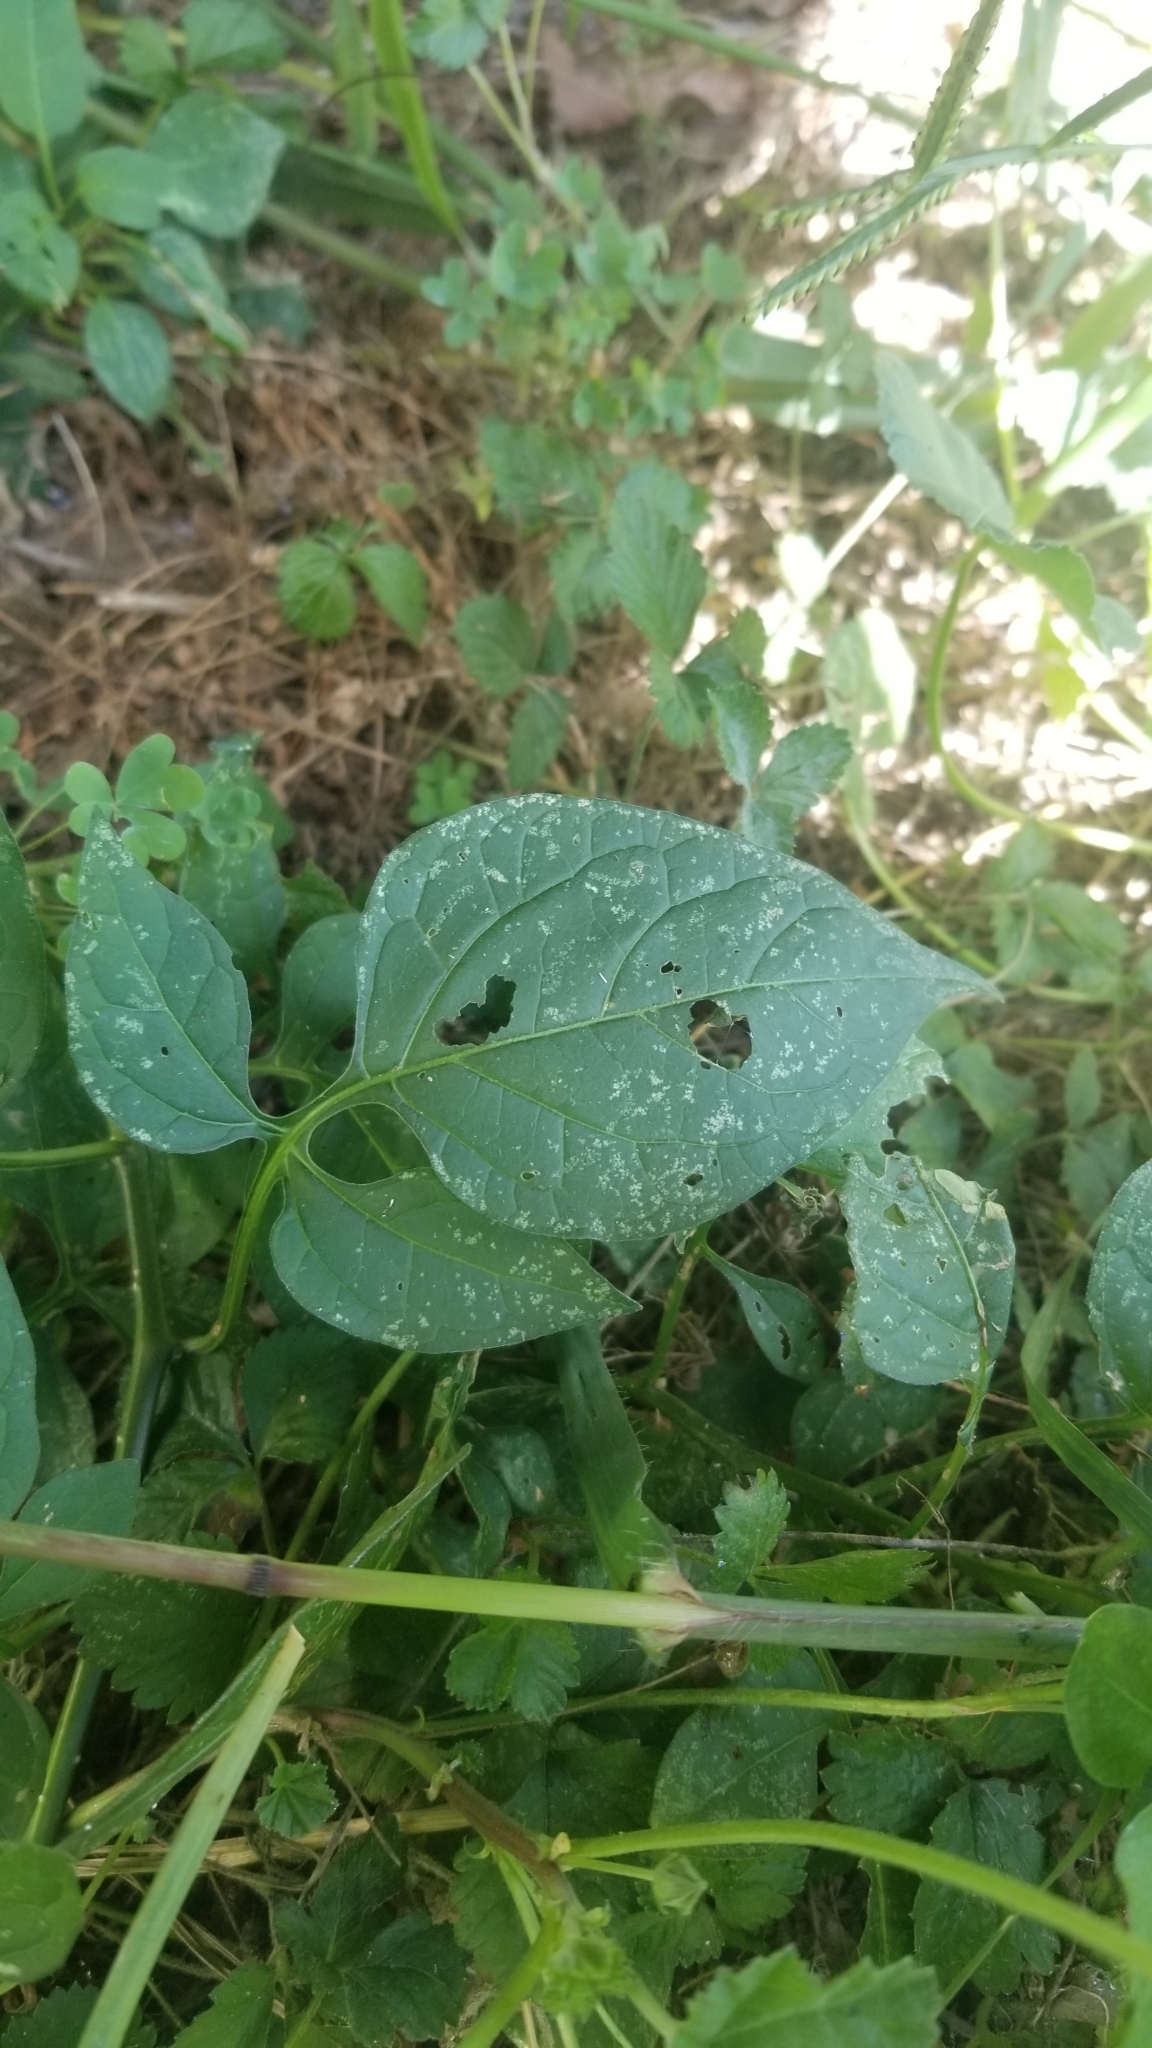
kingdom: Plantae
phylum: Tracheophyta
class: Magnoliopsida
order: Solanales
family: Solanaceae
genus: Solanum
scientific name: Solanum dulcamara
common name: Climbing nightshade
